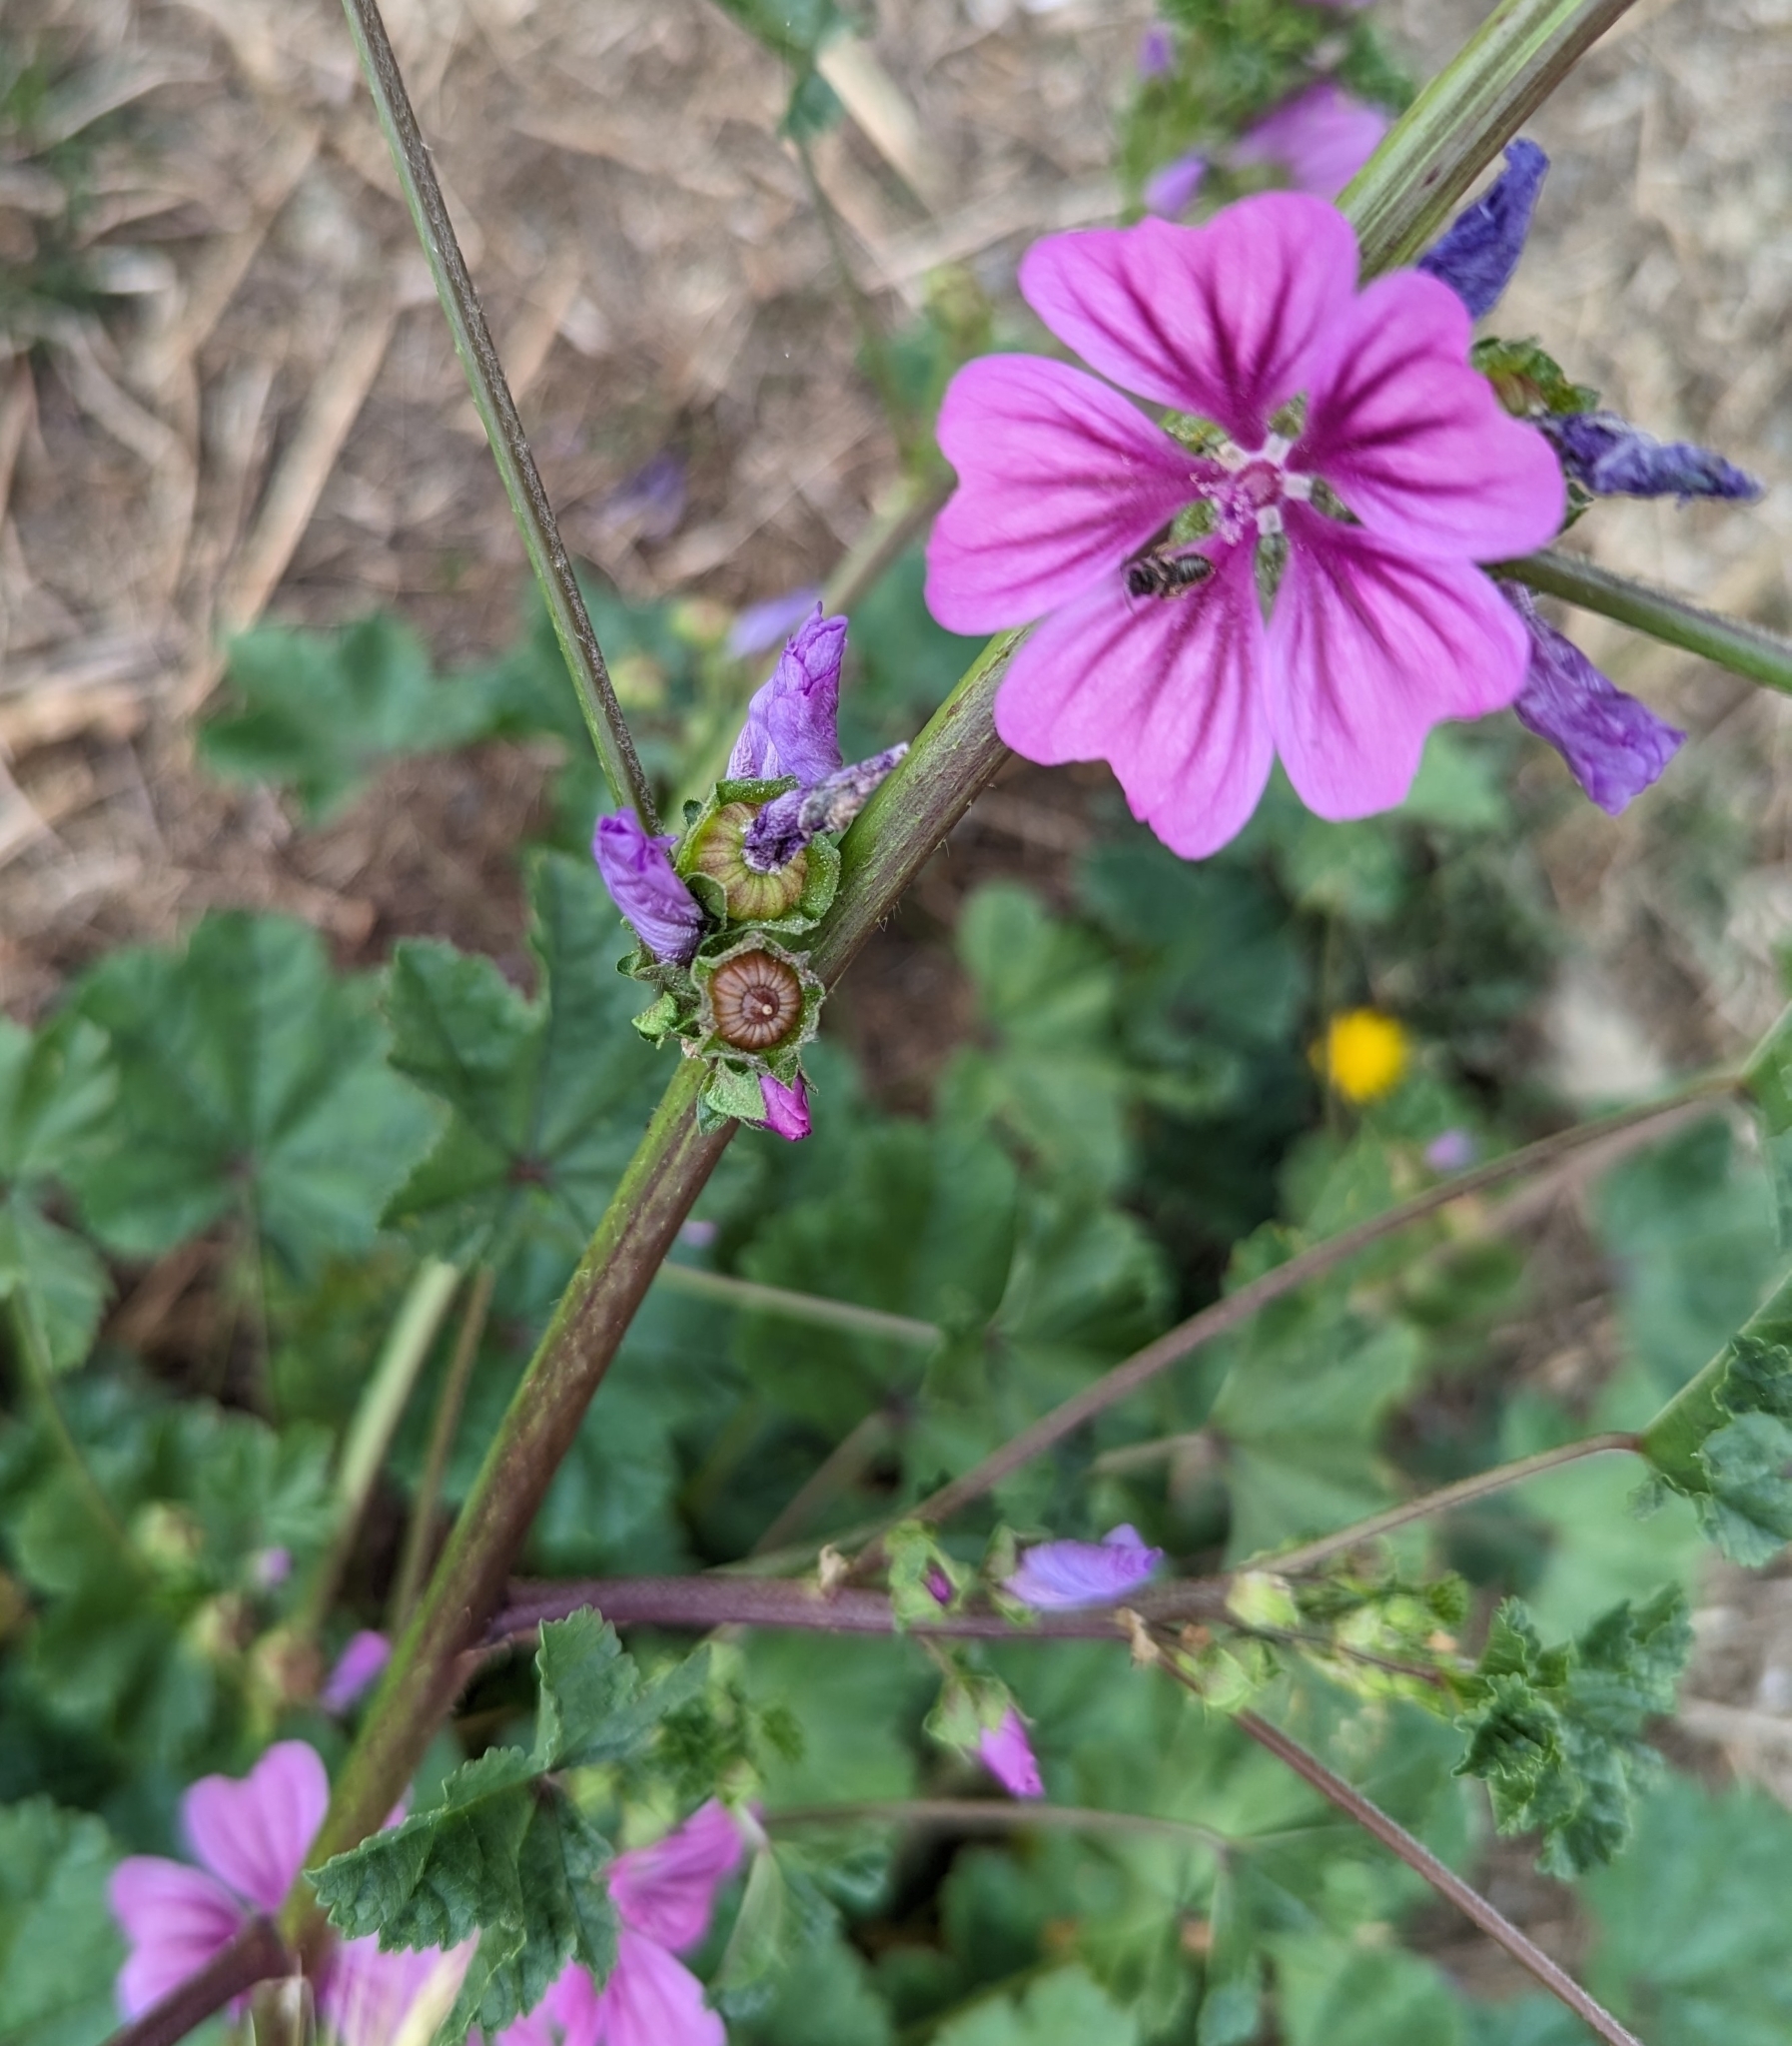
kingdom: Plantae
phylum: Tracheophyta
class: Magnoliopsida
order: Malvales
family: Malvaceae
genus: Malva
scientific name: Malva sylvestris
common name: Common mallow
